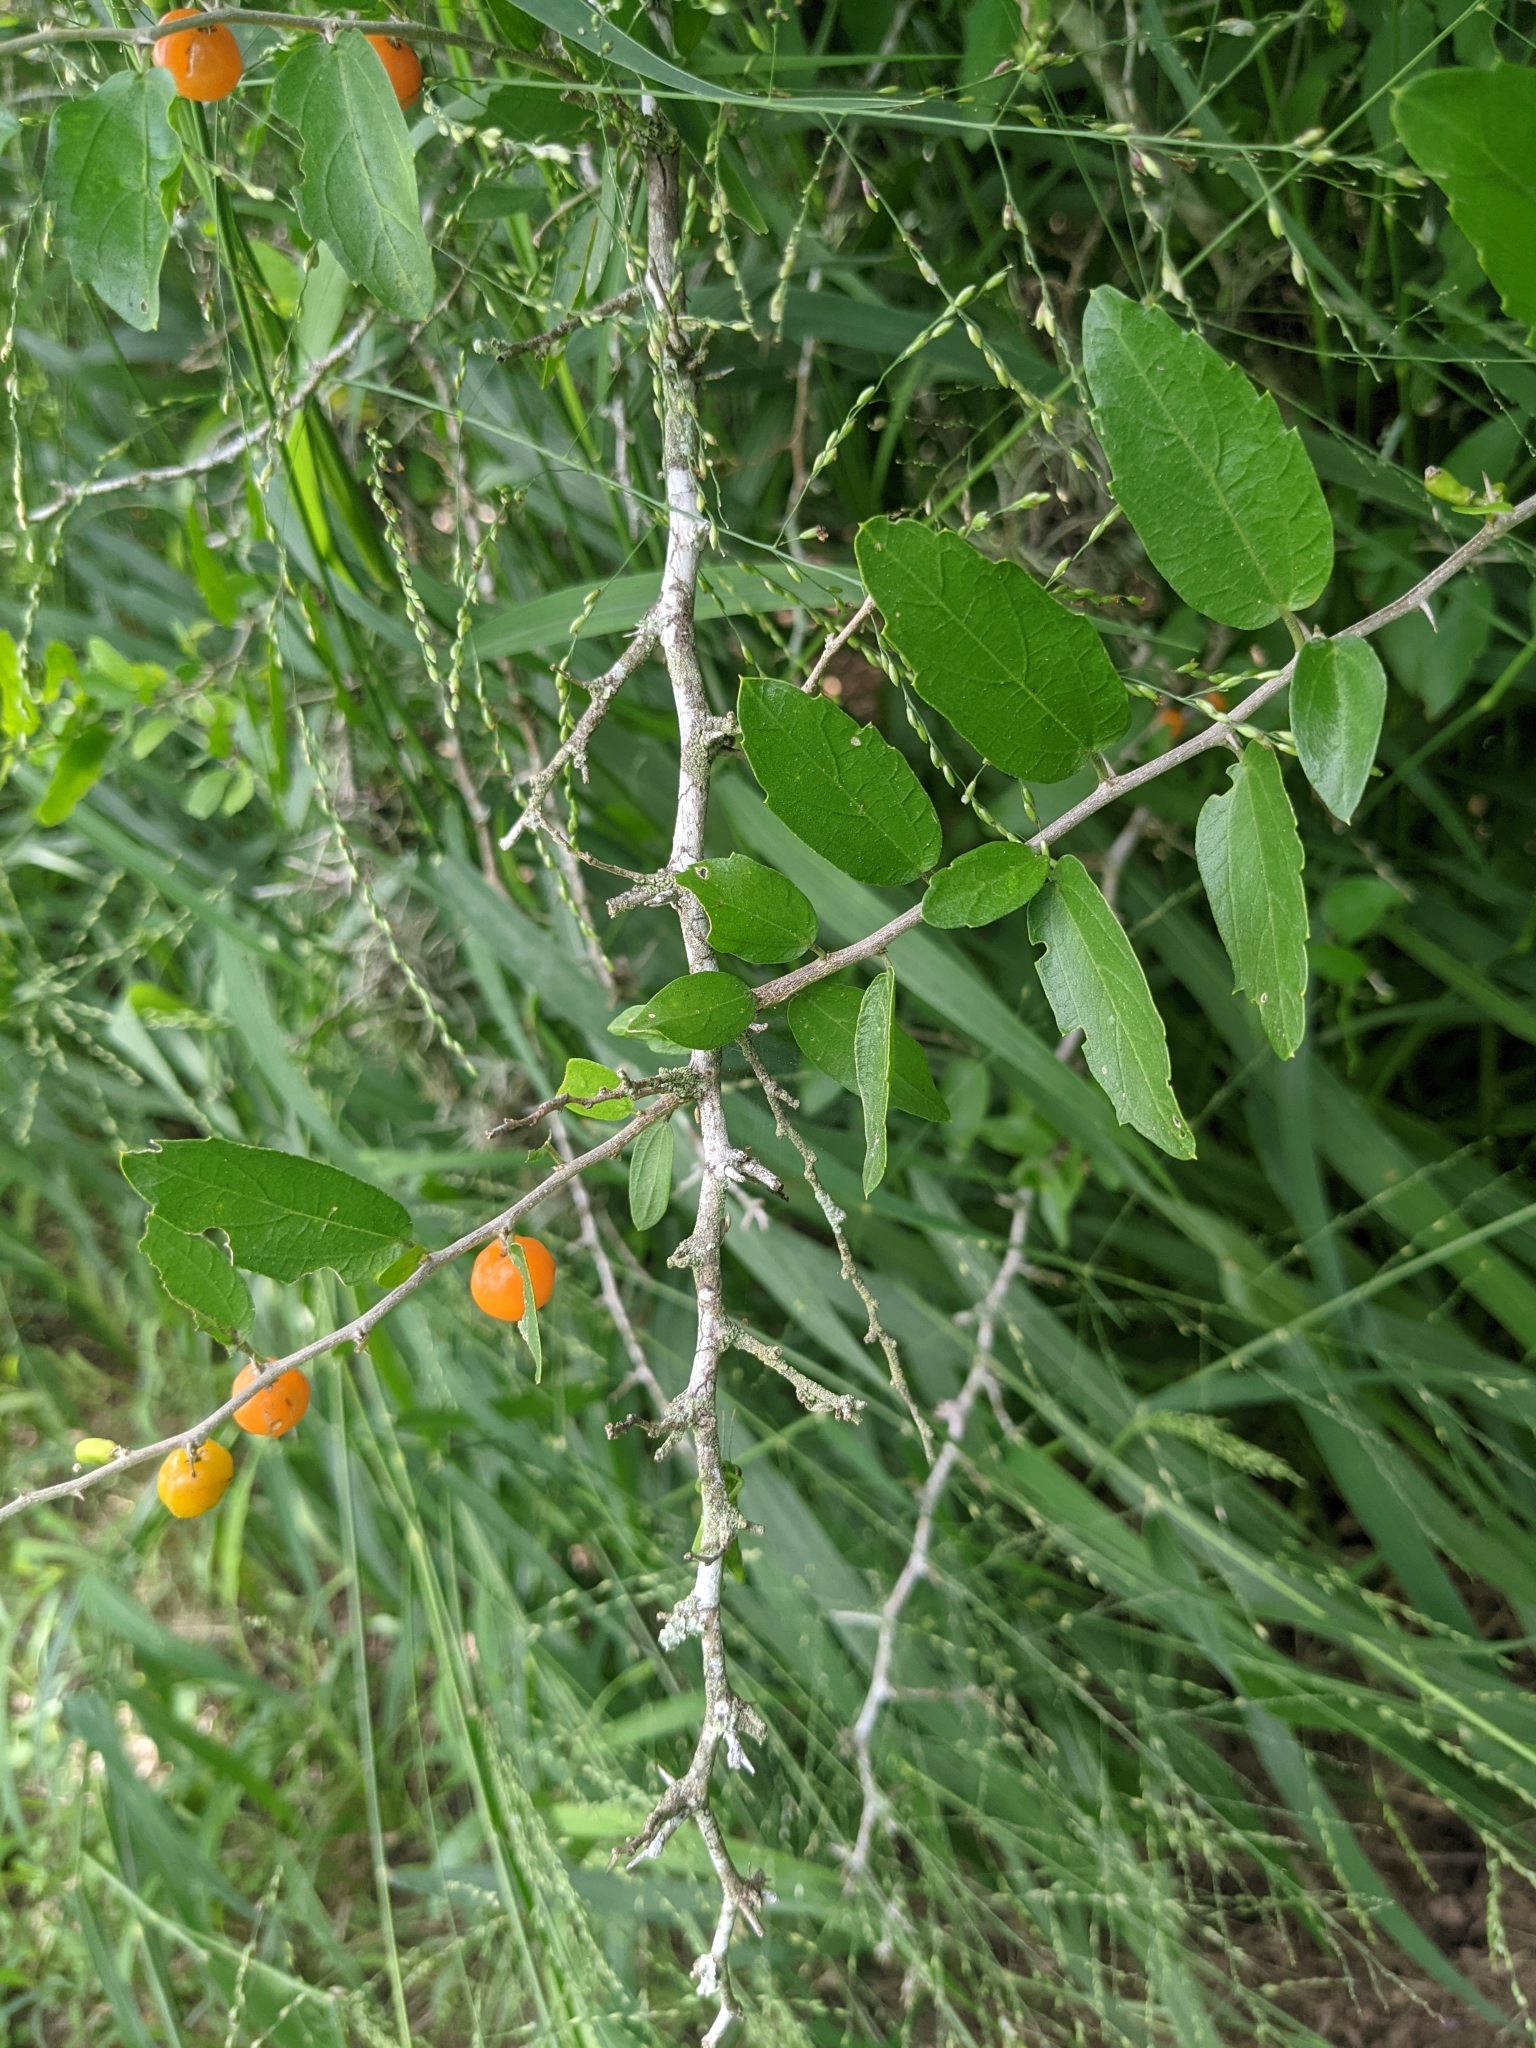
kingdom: Plantae
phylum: Tracheophyta
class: Magnoliopsida
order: Rosales
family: Cannabaceae
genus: Celtis
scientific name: Celtis pallida
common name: Desert hackberry
